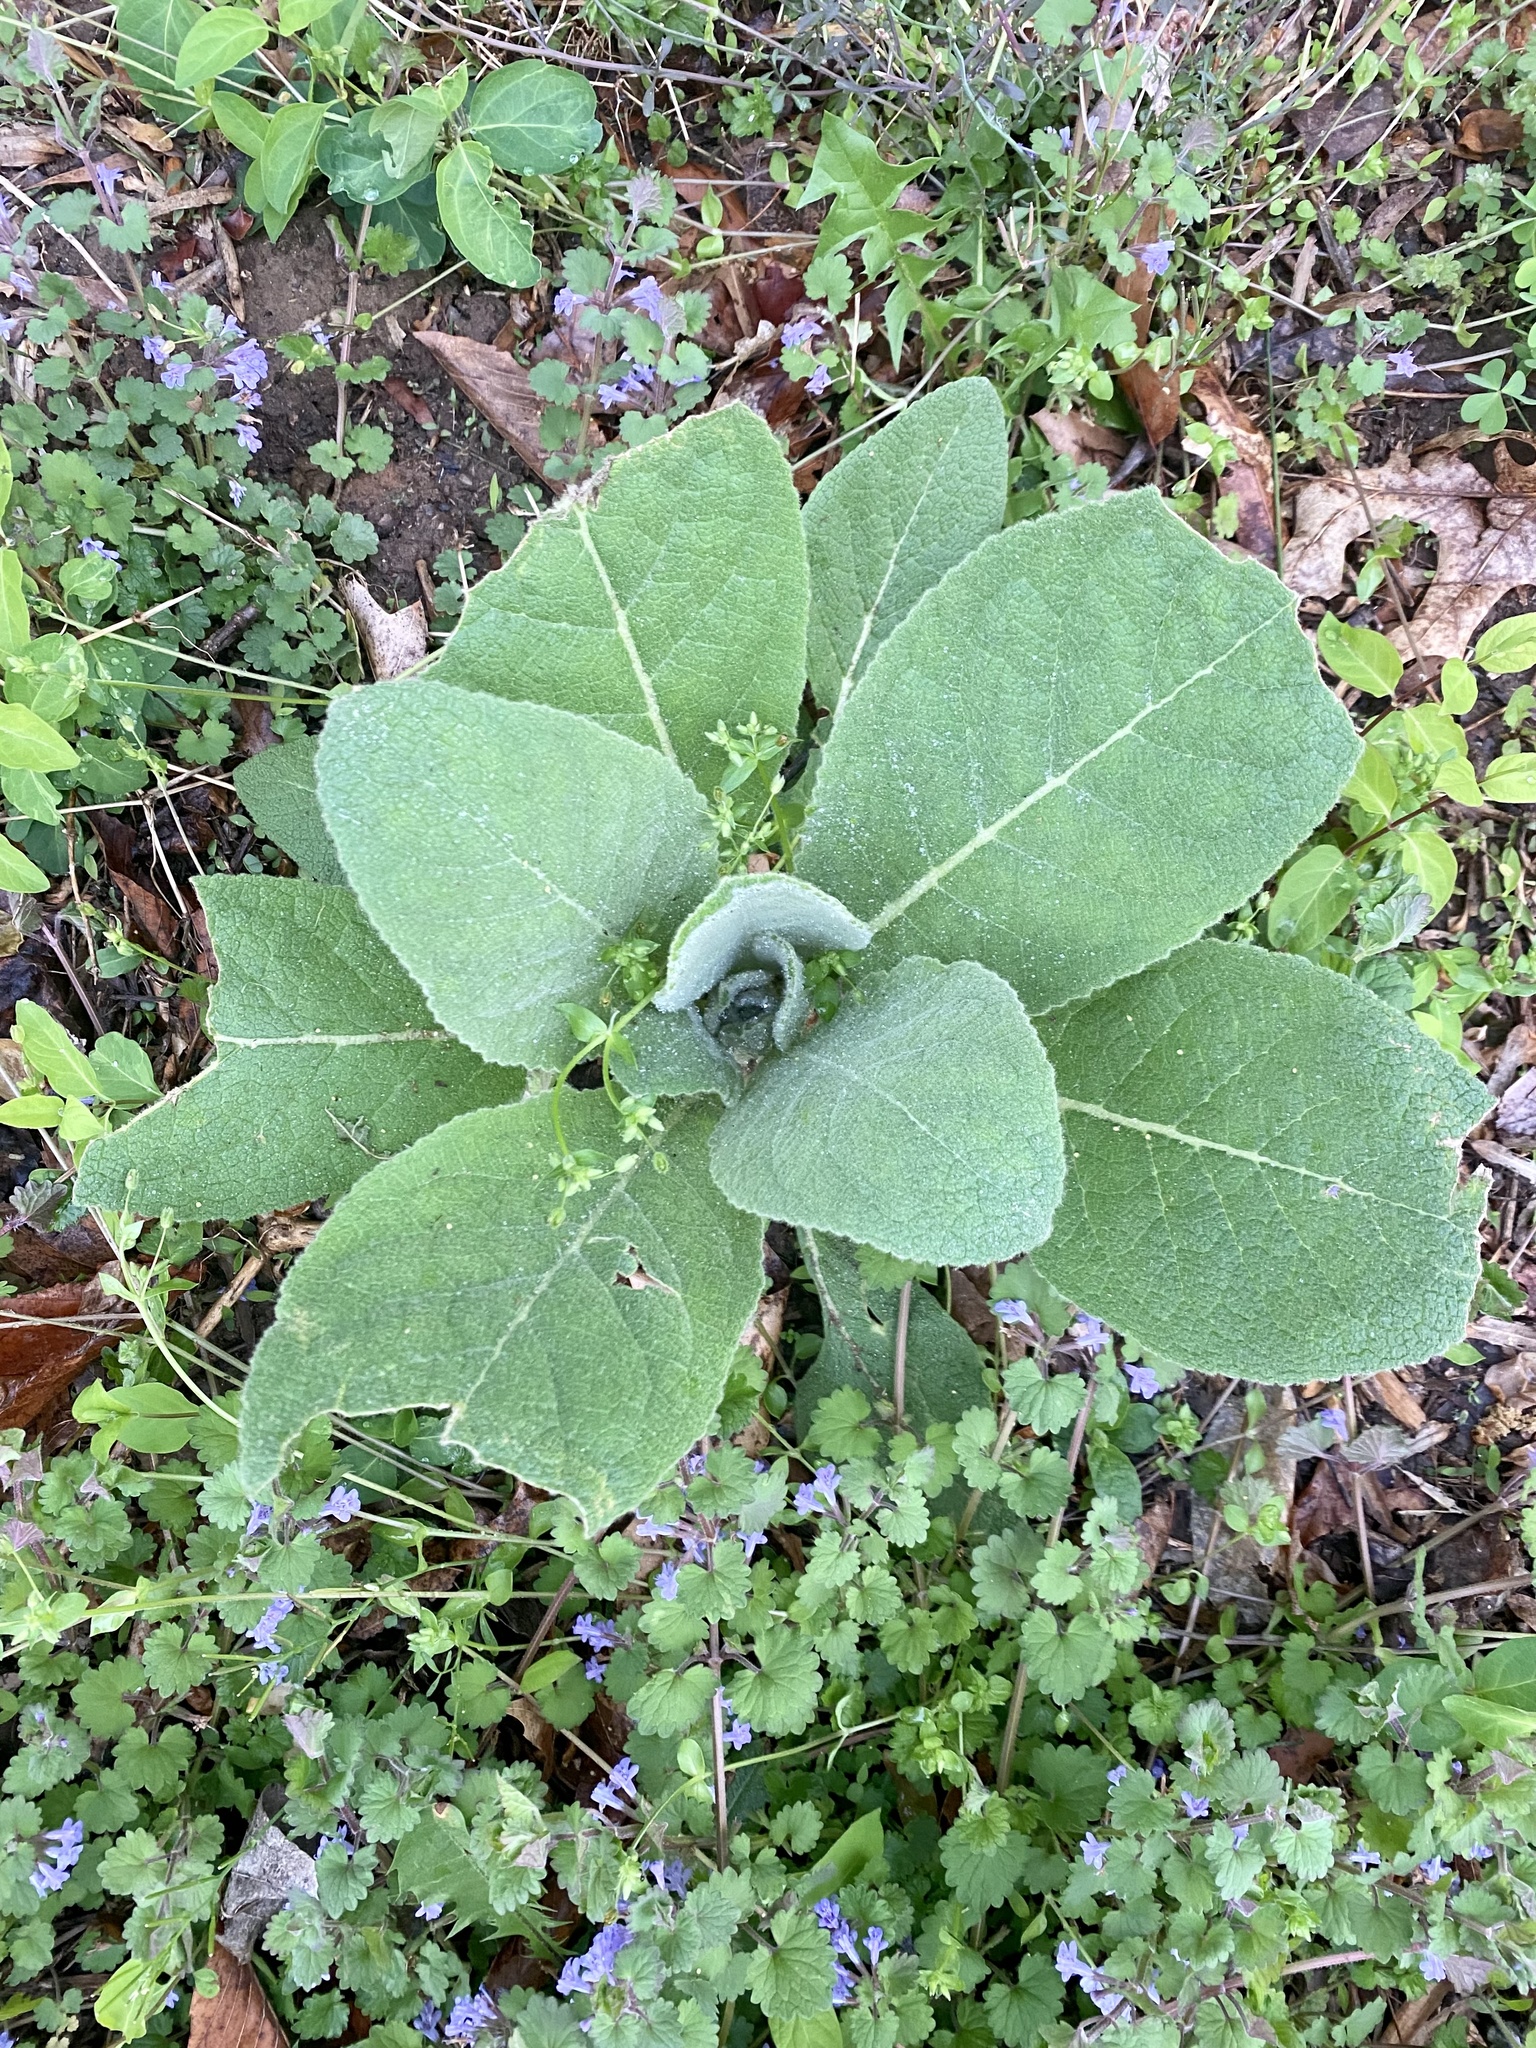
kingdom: Plantae
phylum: Tracheophyta
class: Magnoliopsida
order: Lamiales
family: Scrophulariaceae
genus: Verbascum
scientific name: Verbascum thapsus
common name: Common mullein
